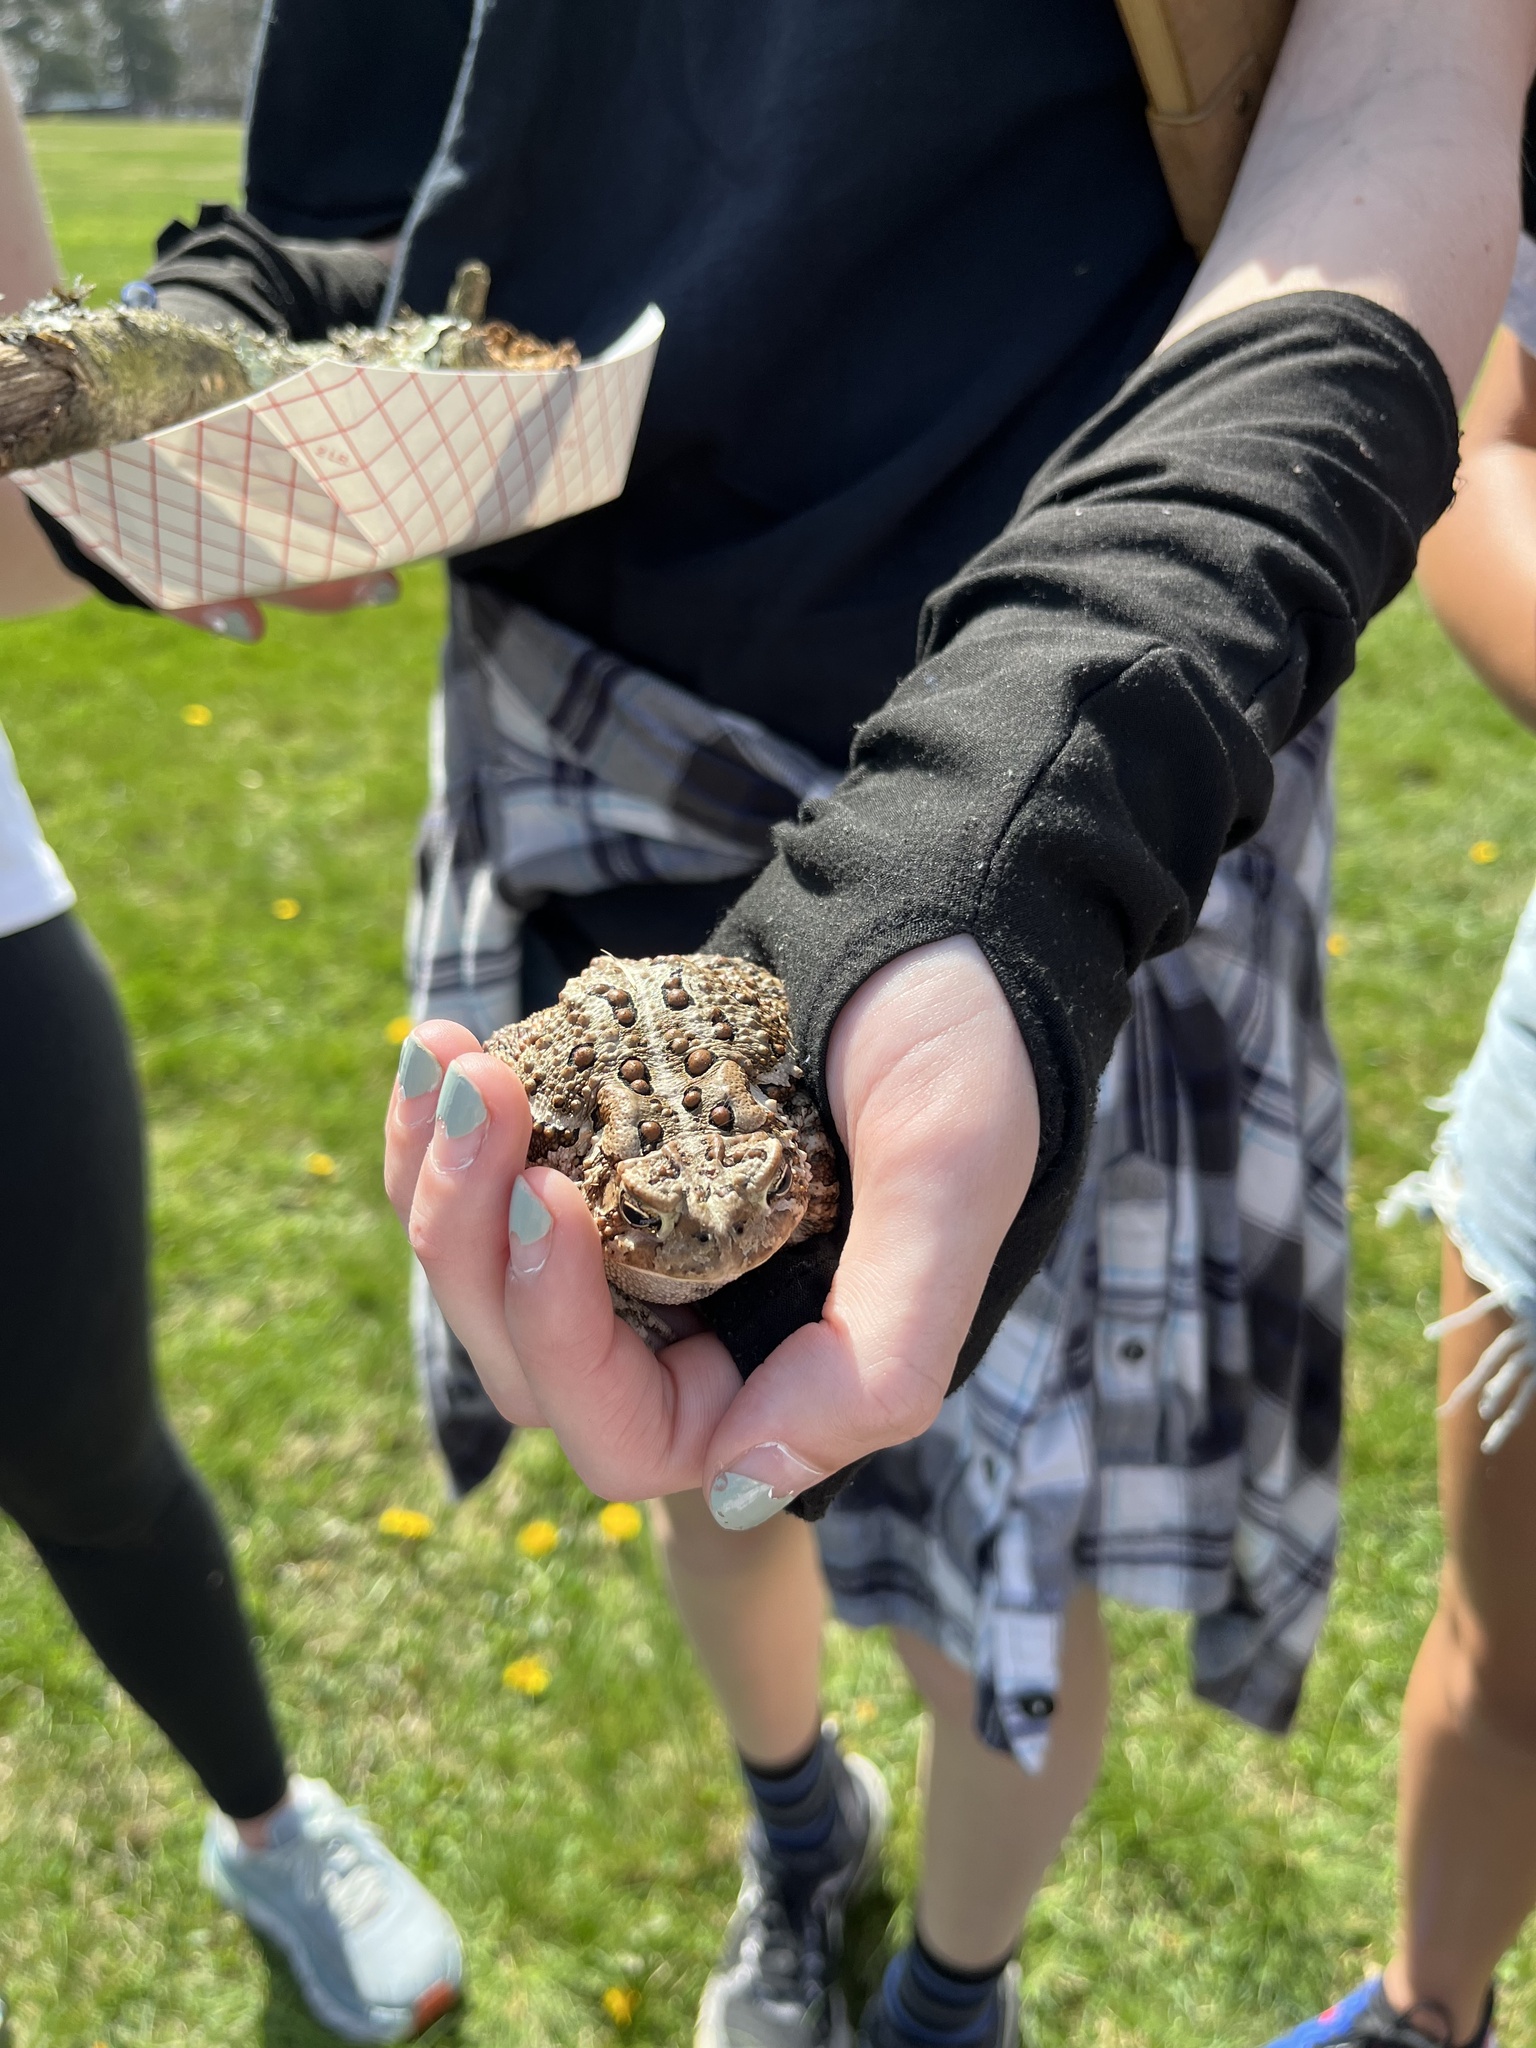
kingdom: Animalia
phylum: Chordata
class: Amphibia
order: Anura
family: Bufonidae
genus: Anaxyrus
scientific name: Anaxyrus americanus
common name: American toad
